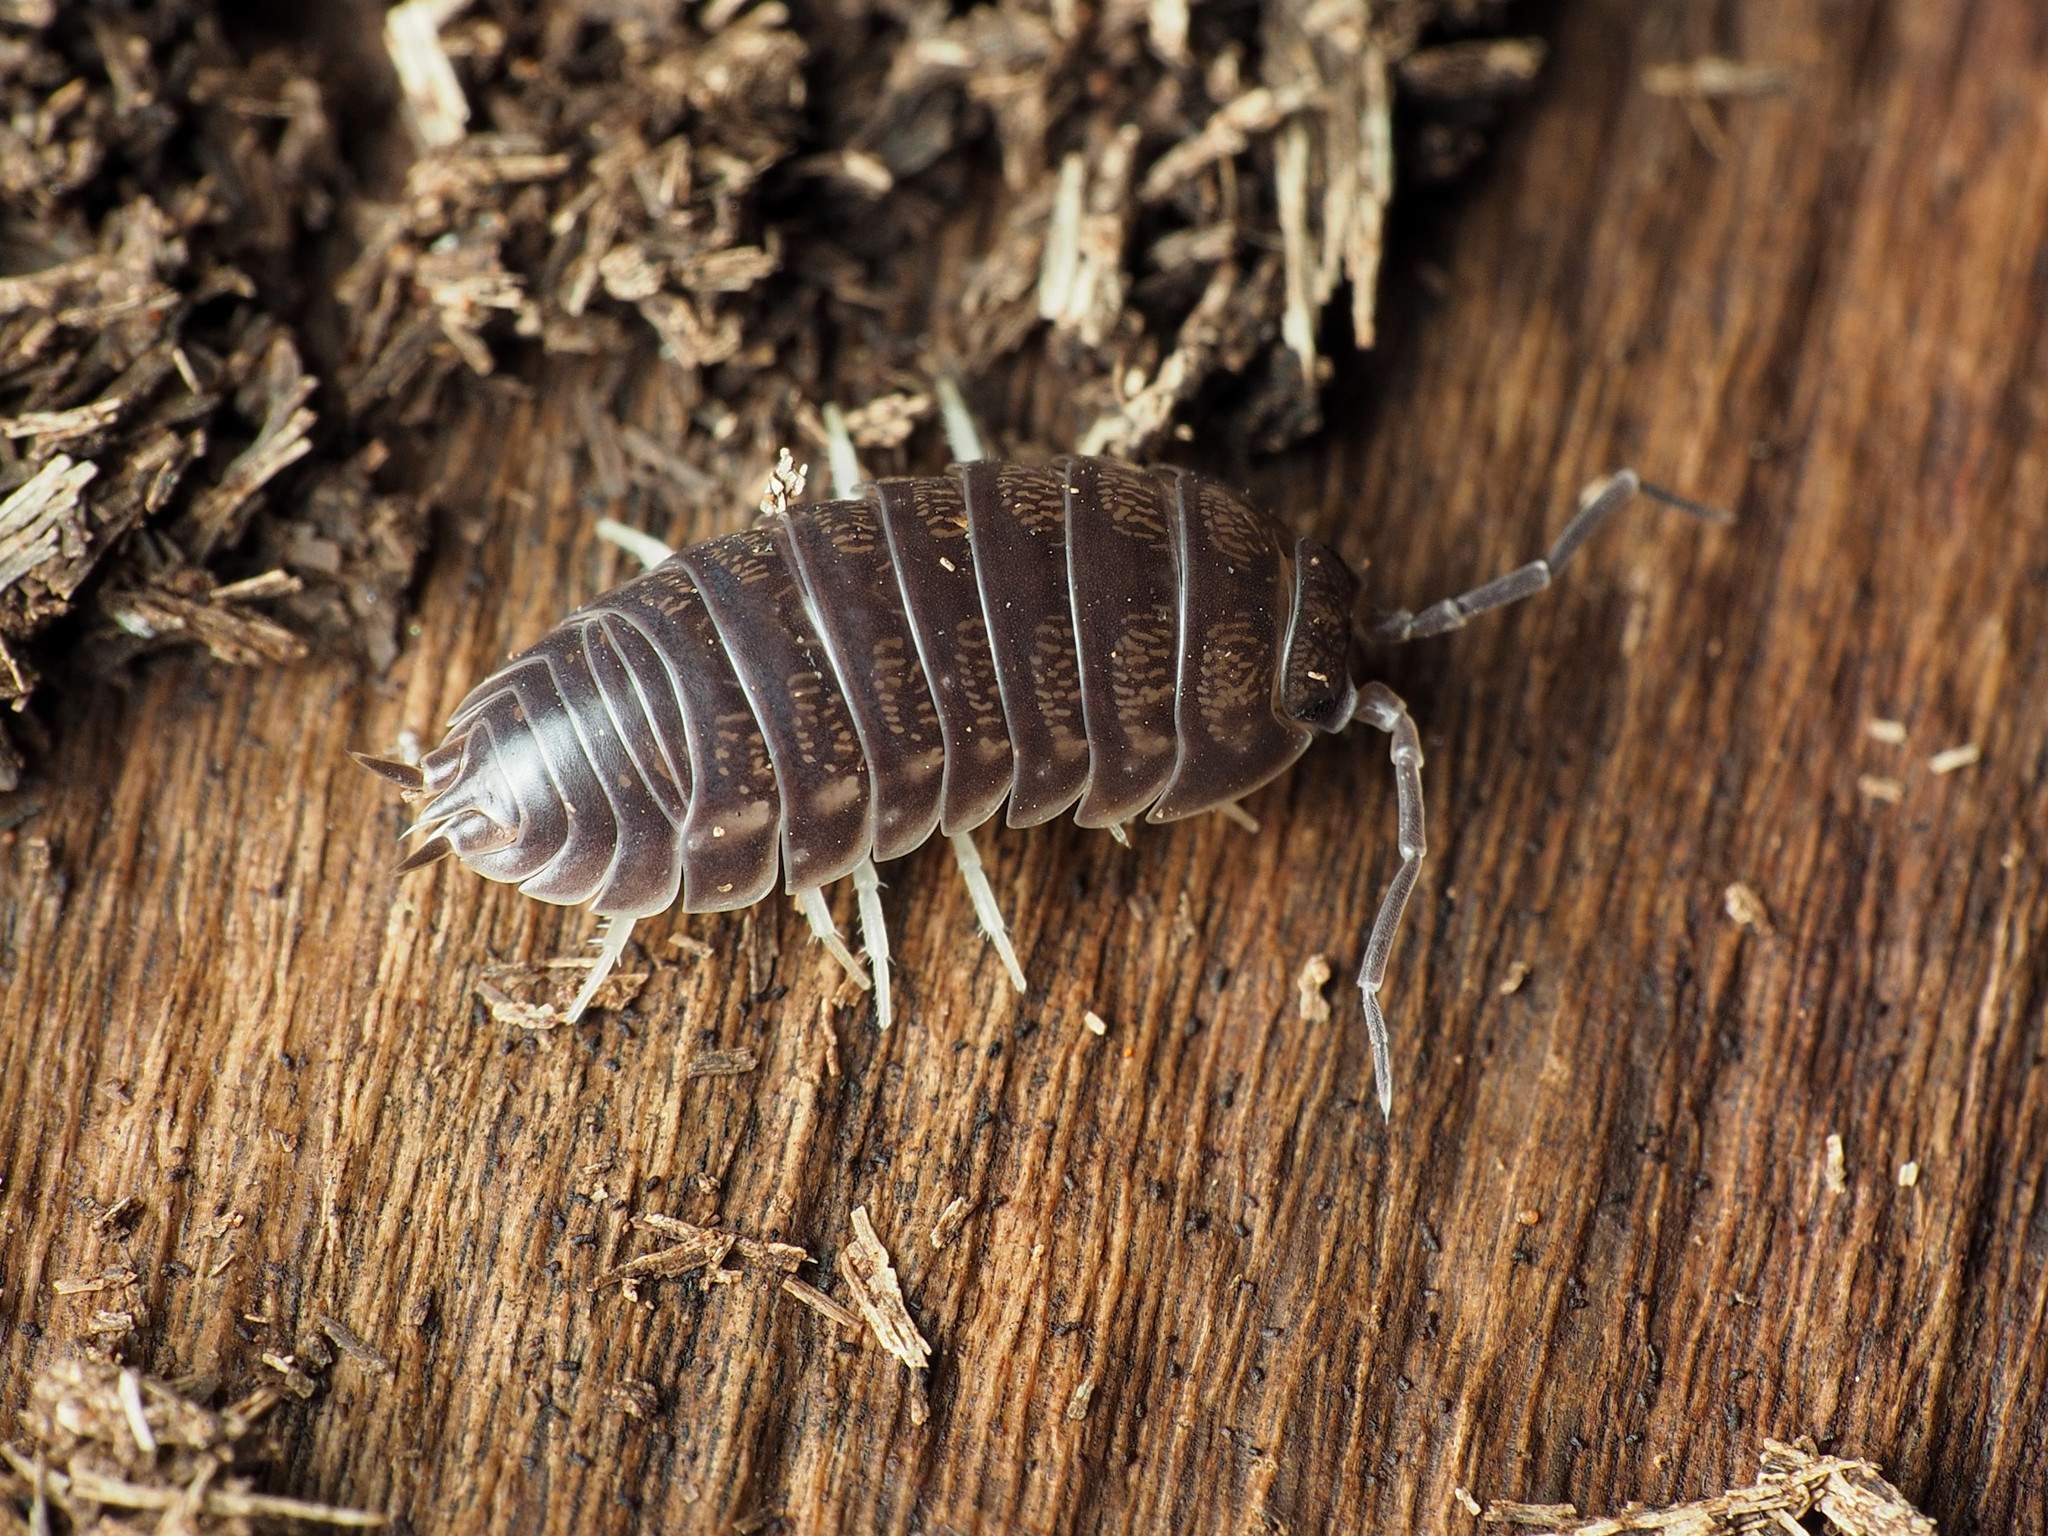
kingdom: Animalia
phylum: Arthropoda
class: Malacostraca
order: Isopoda
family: Cylisticidae
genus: Cylisticus
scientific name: Cylisticus convexus
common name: Curly woodlouse
